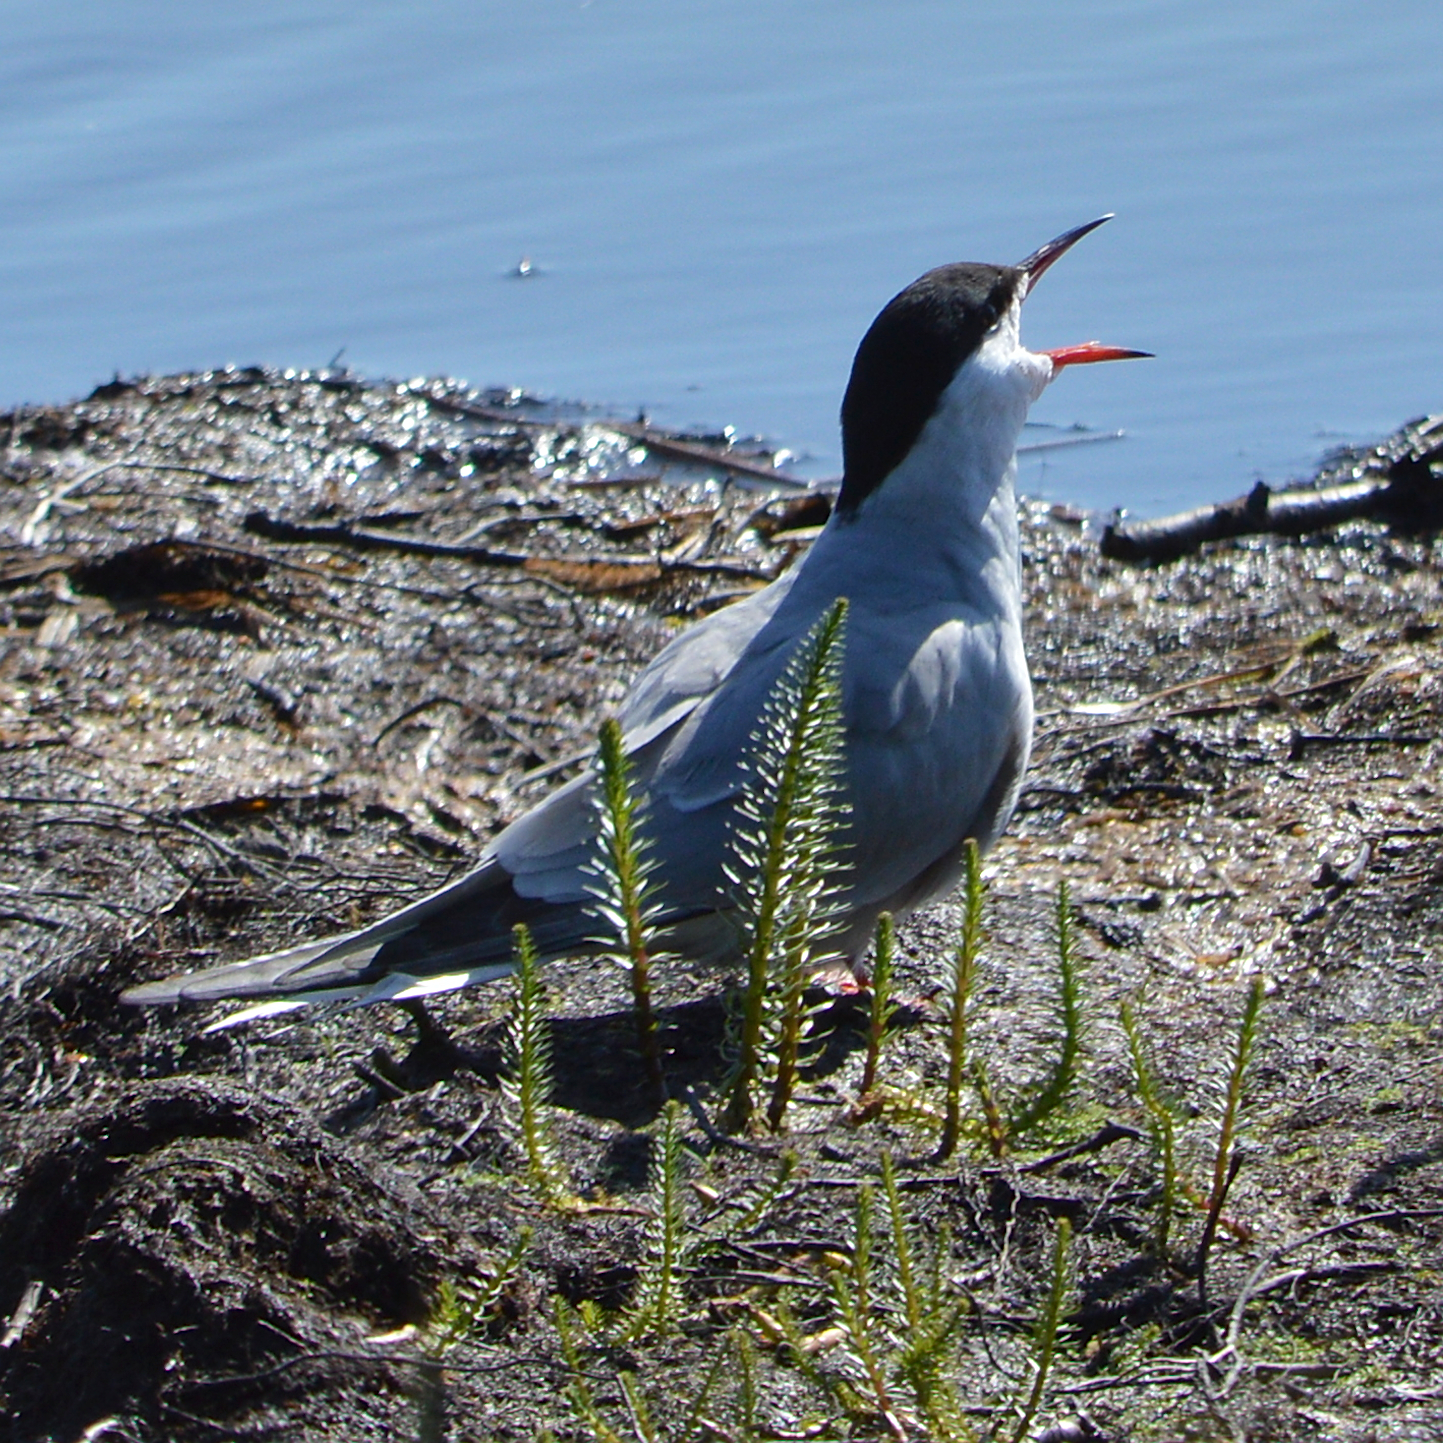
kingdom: Animalia
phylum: Chordata
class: Aves
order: Charadriiformes
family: Laridae
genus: Sterna
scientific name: Sterna hirundo
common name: Common tern
